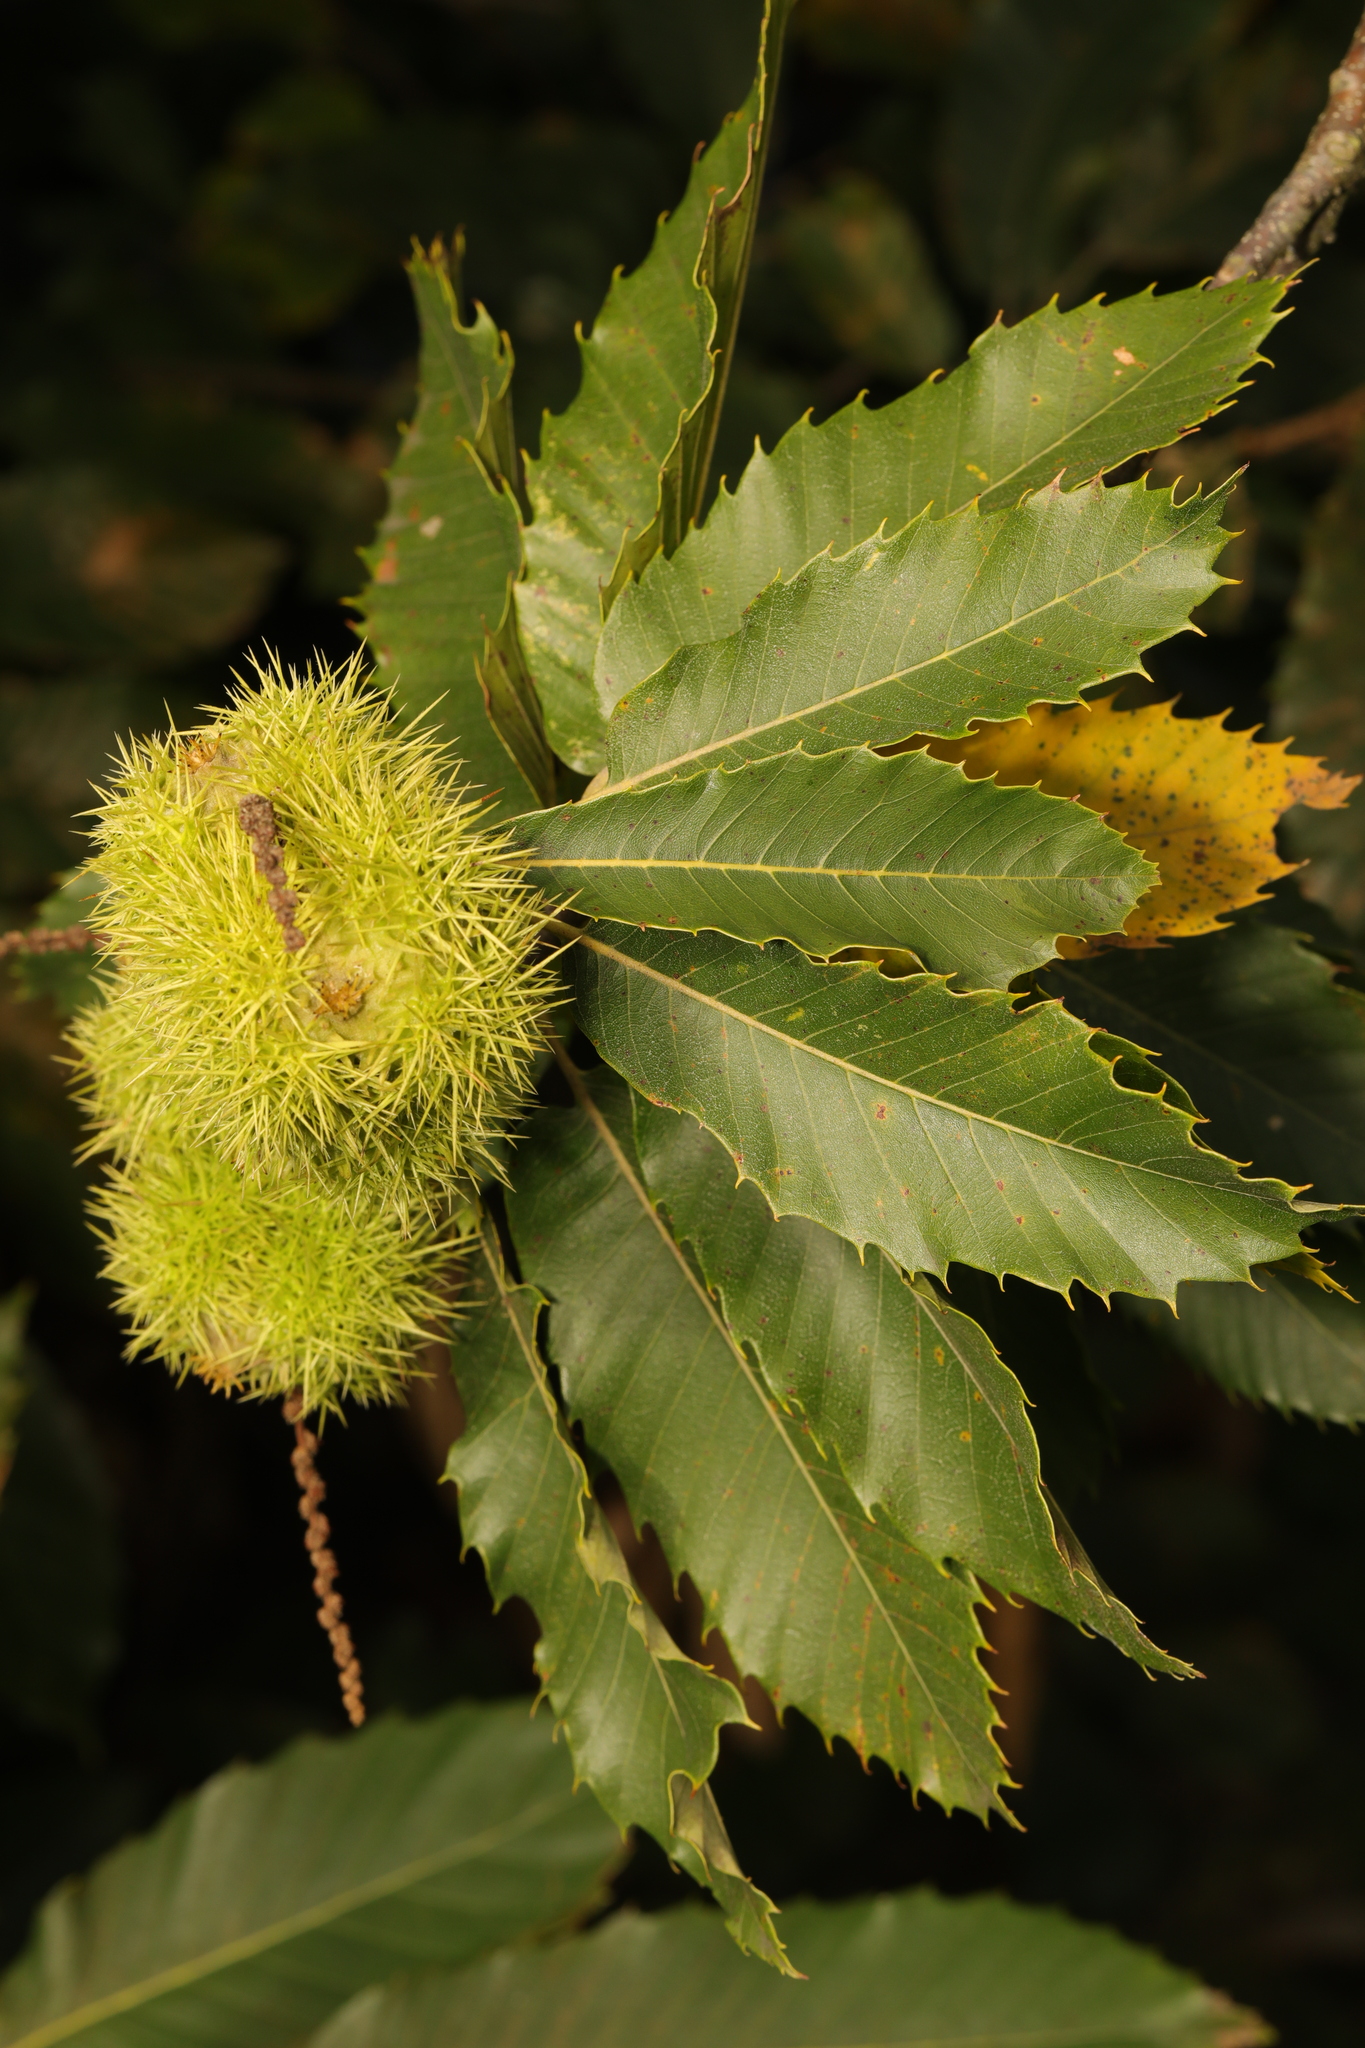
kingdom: Plantae
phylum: Tracheophyta
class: Magnoliopsida
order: Fagales
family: Fagaceae
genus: Castanea
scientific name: Castanea sativa
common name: Sweet chestnut
